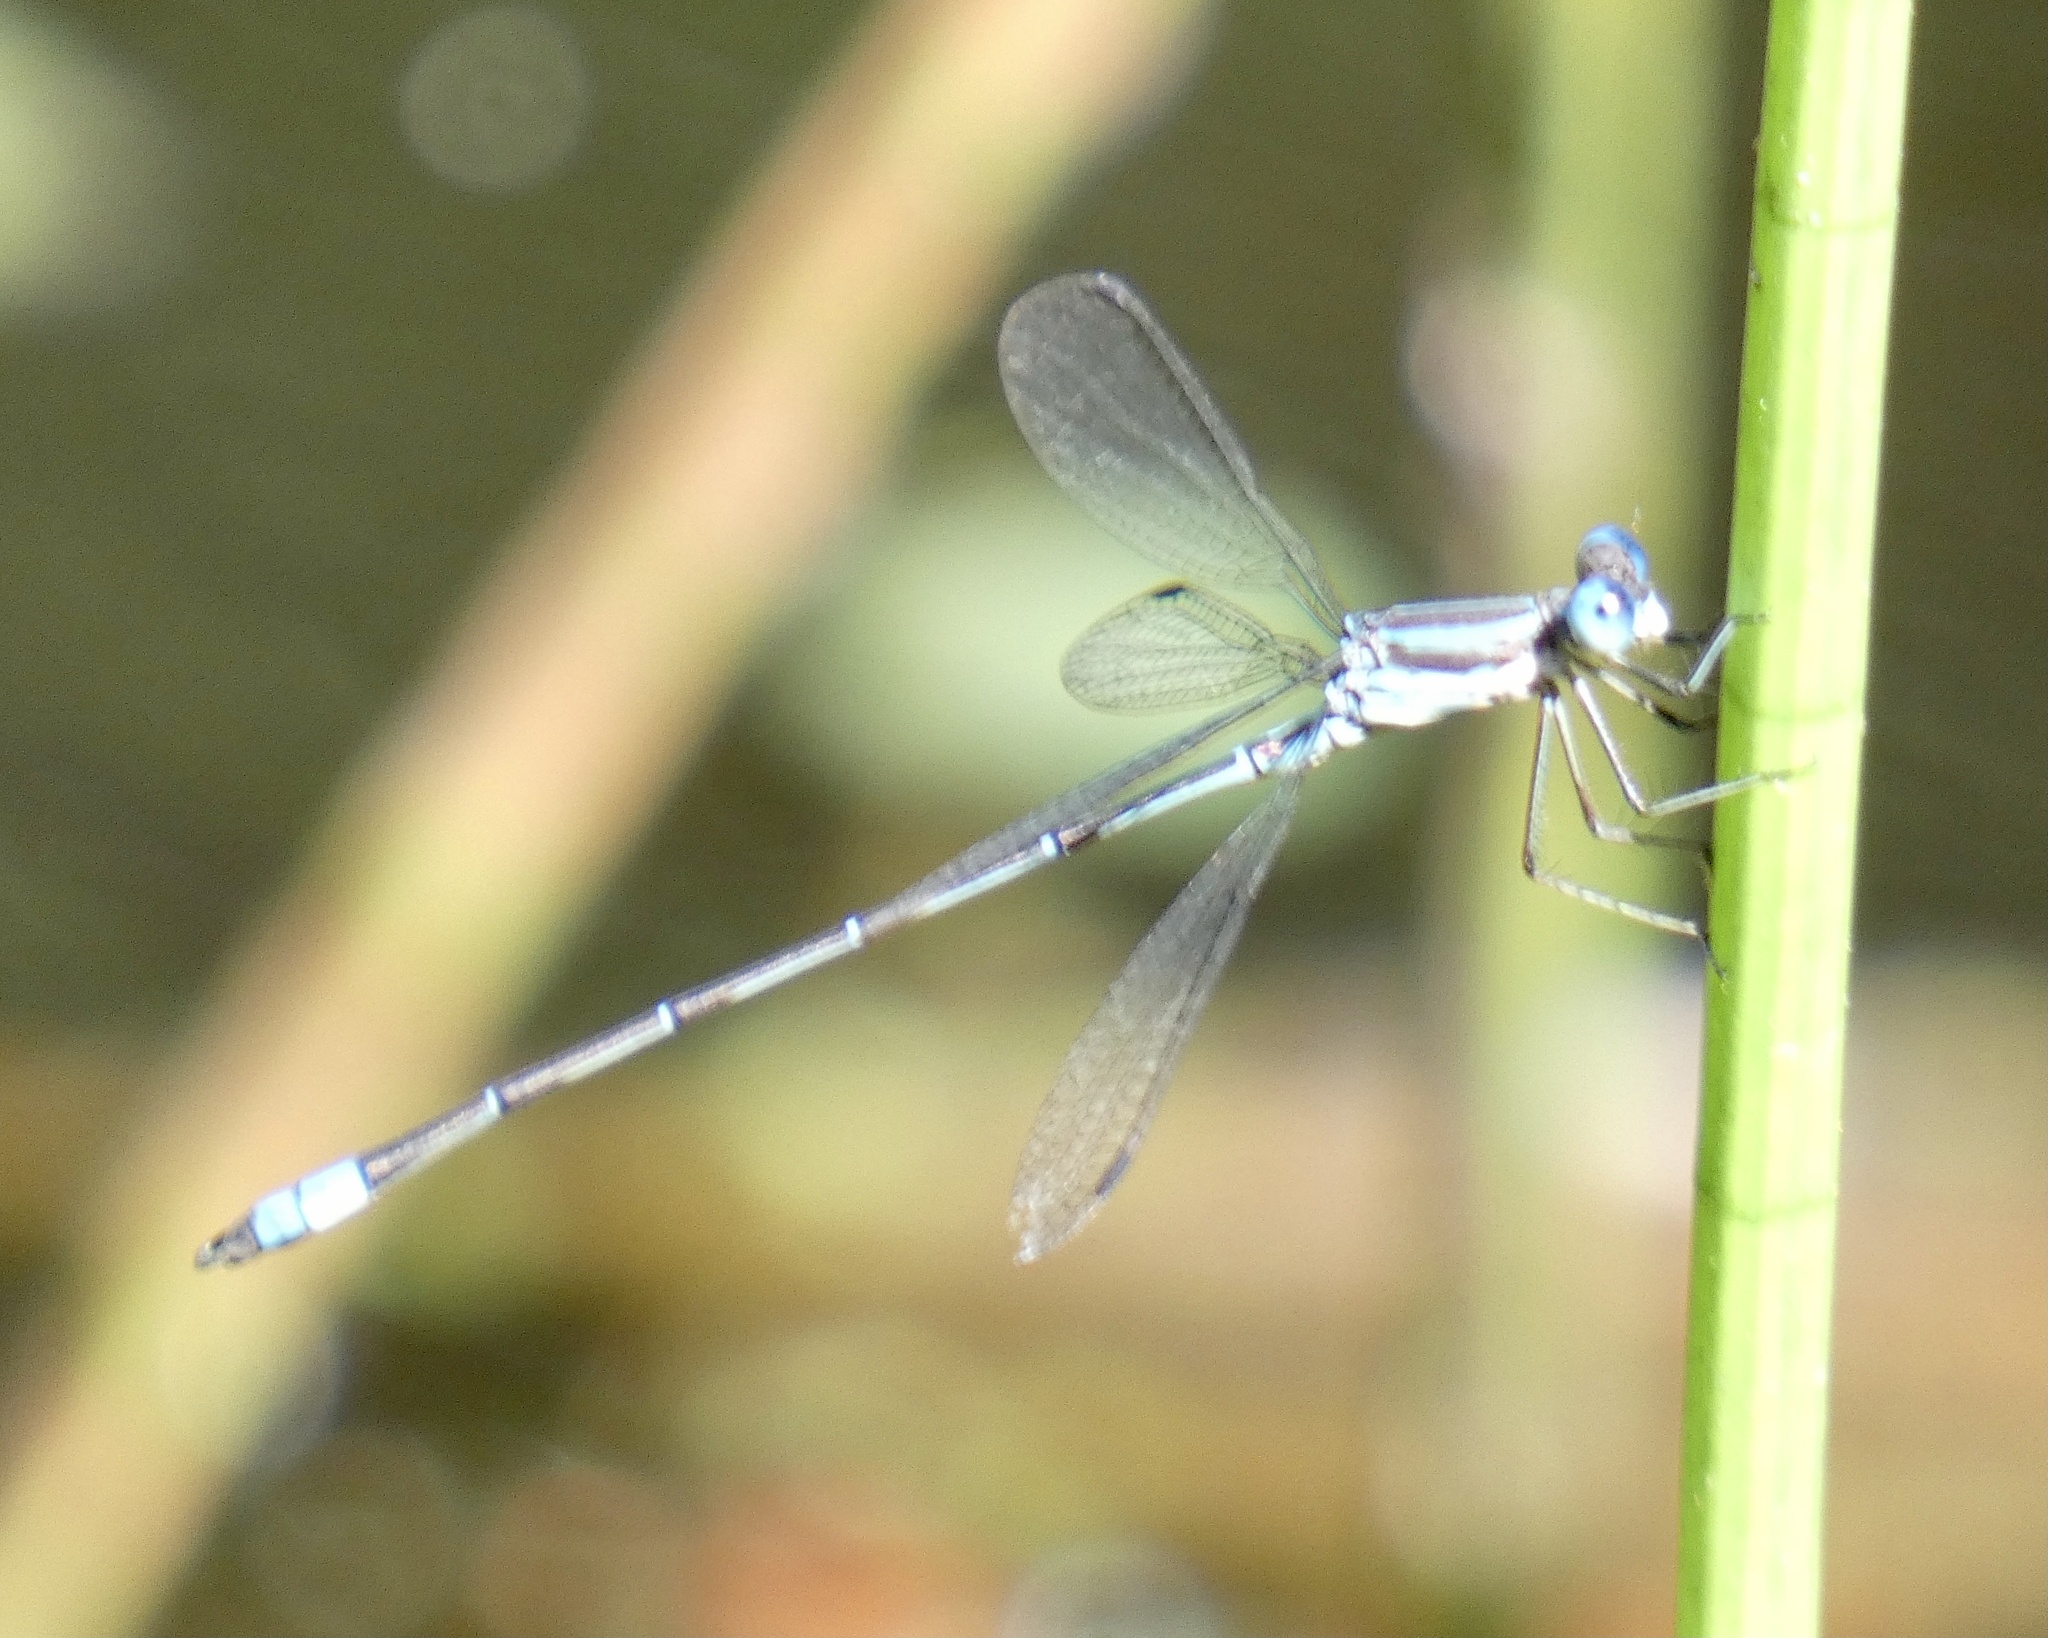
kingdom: Animalia
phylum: Arthropoda
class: Insecta
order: Odonata
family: Lestidae
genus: Lestes
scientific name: Lestes pictus
